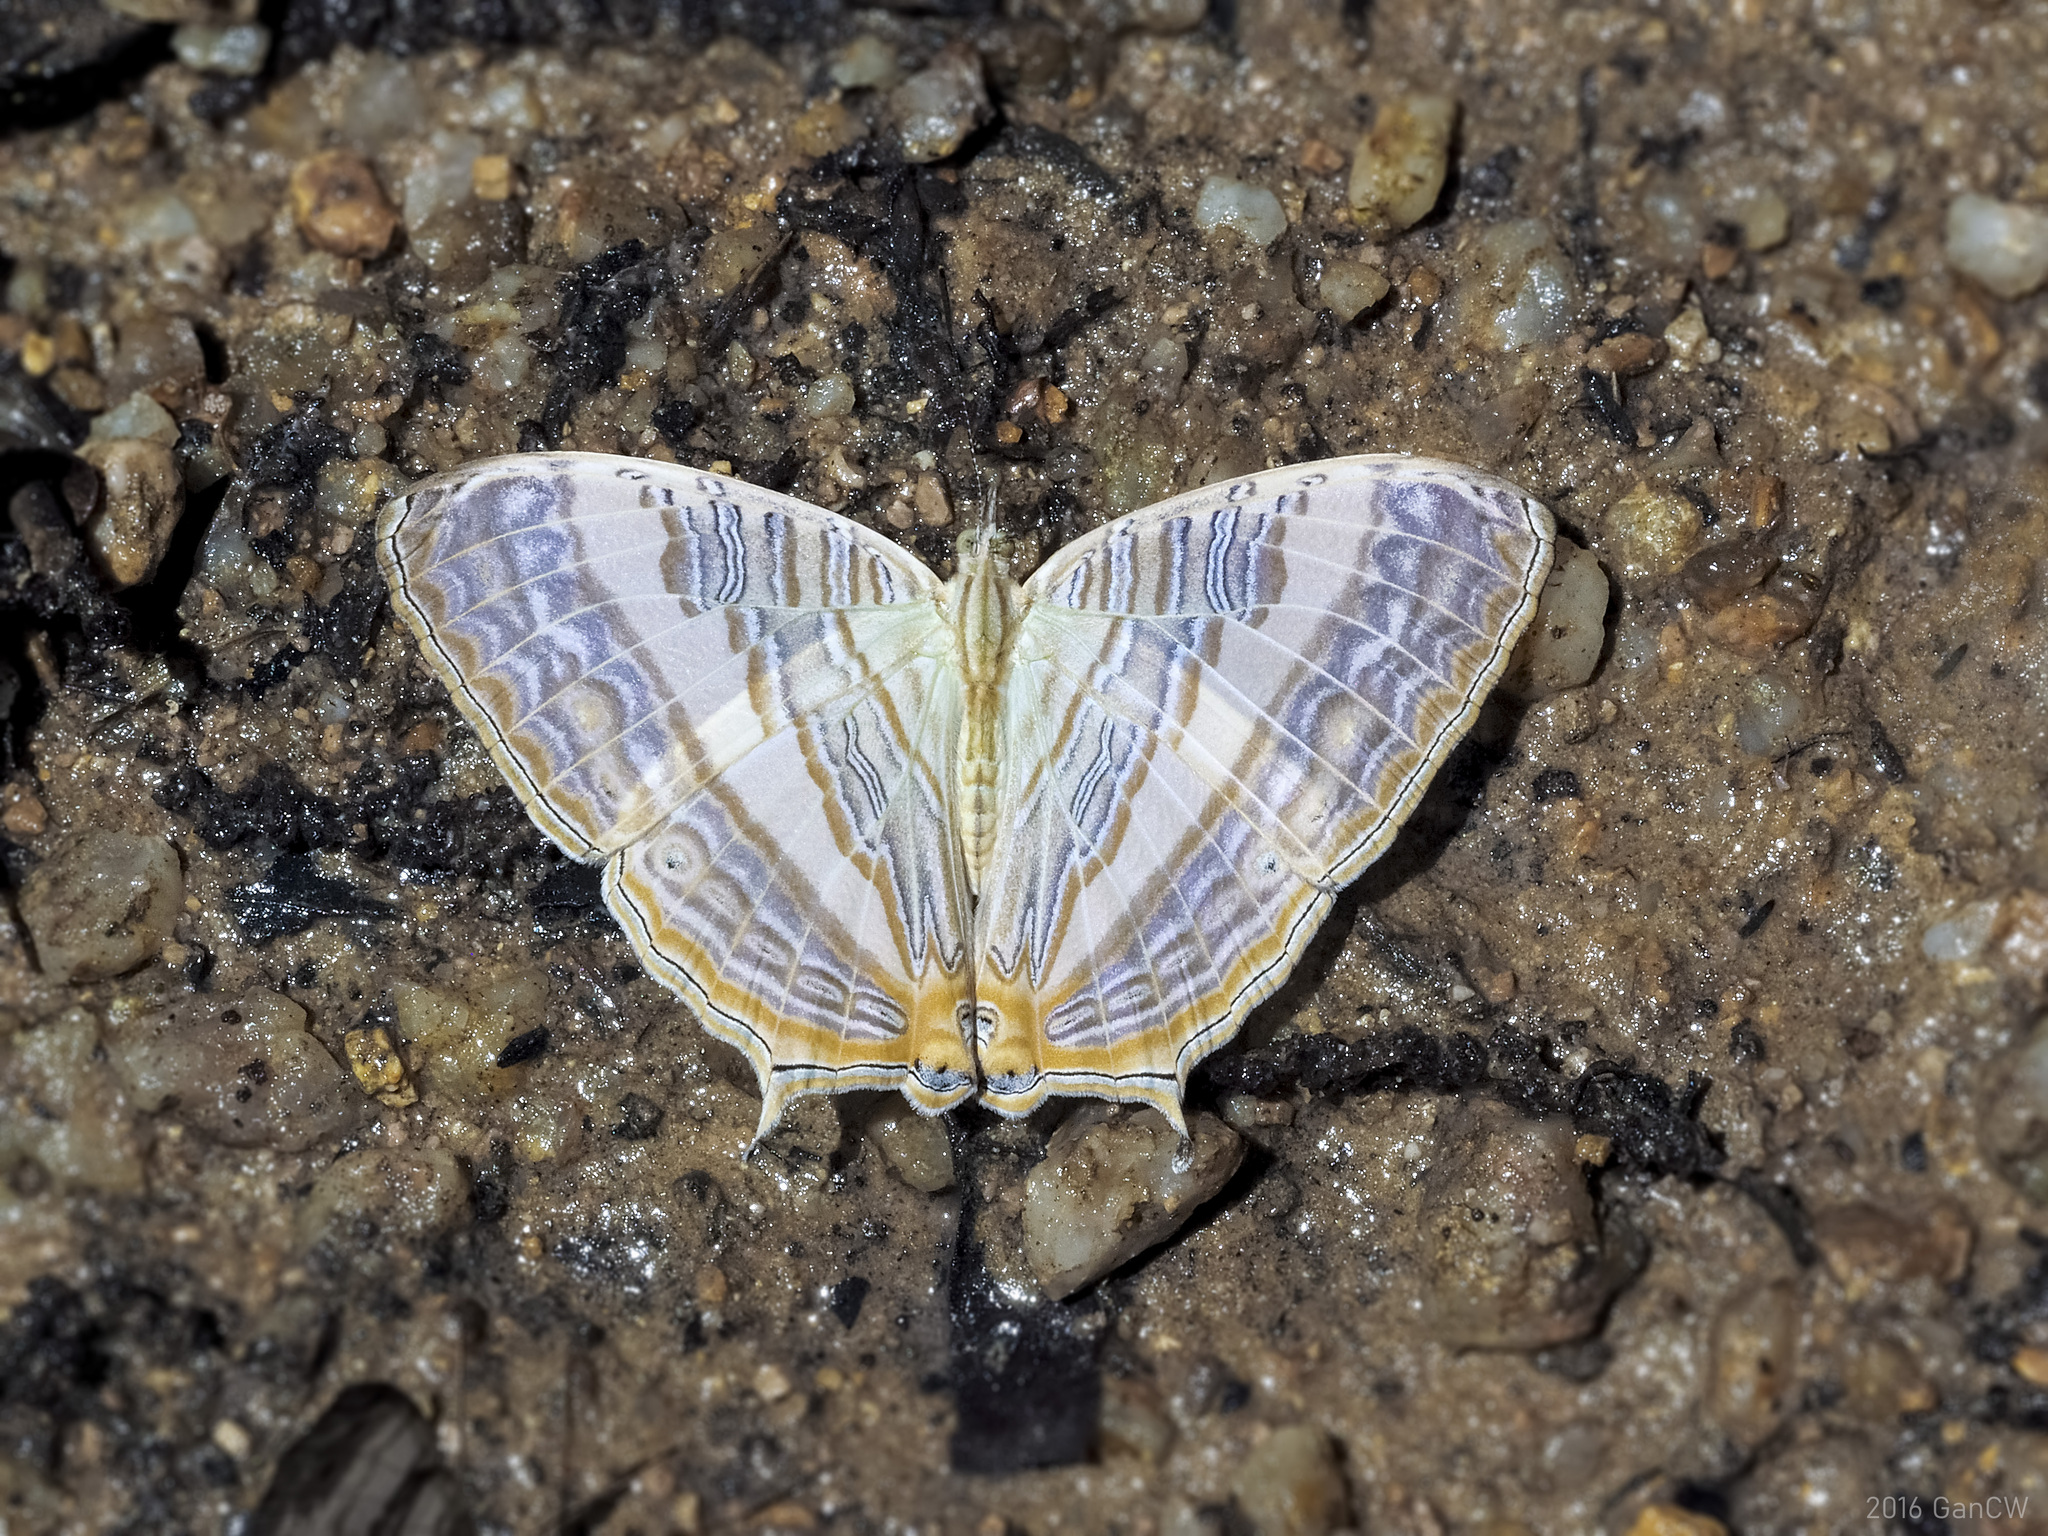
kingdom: Animalia
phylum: Arthropoda
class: Insecta
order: Lepidoptera
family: Nymphalidae
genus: Cyrestis
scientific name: Cyrestis cocles
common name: Marbled map
